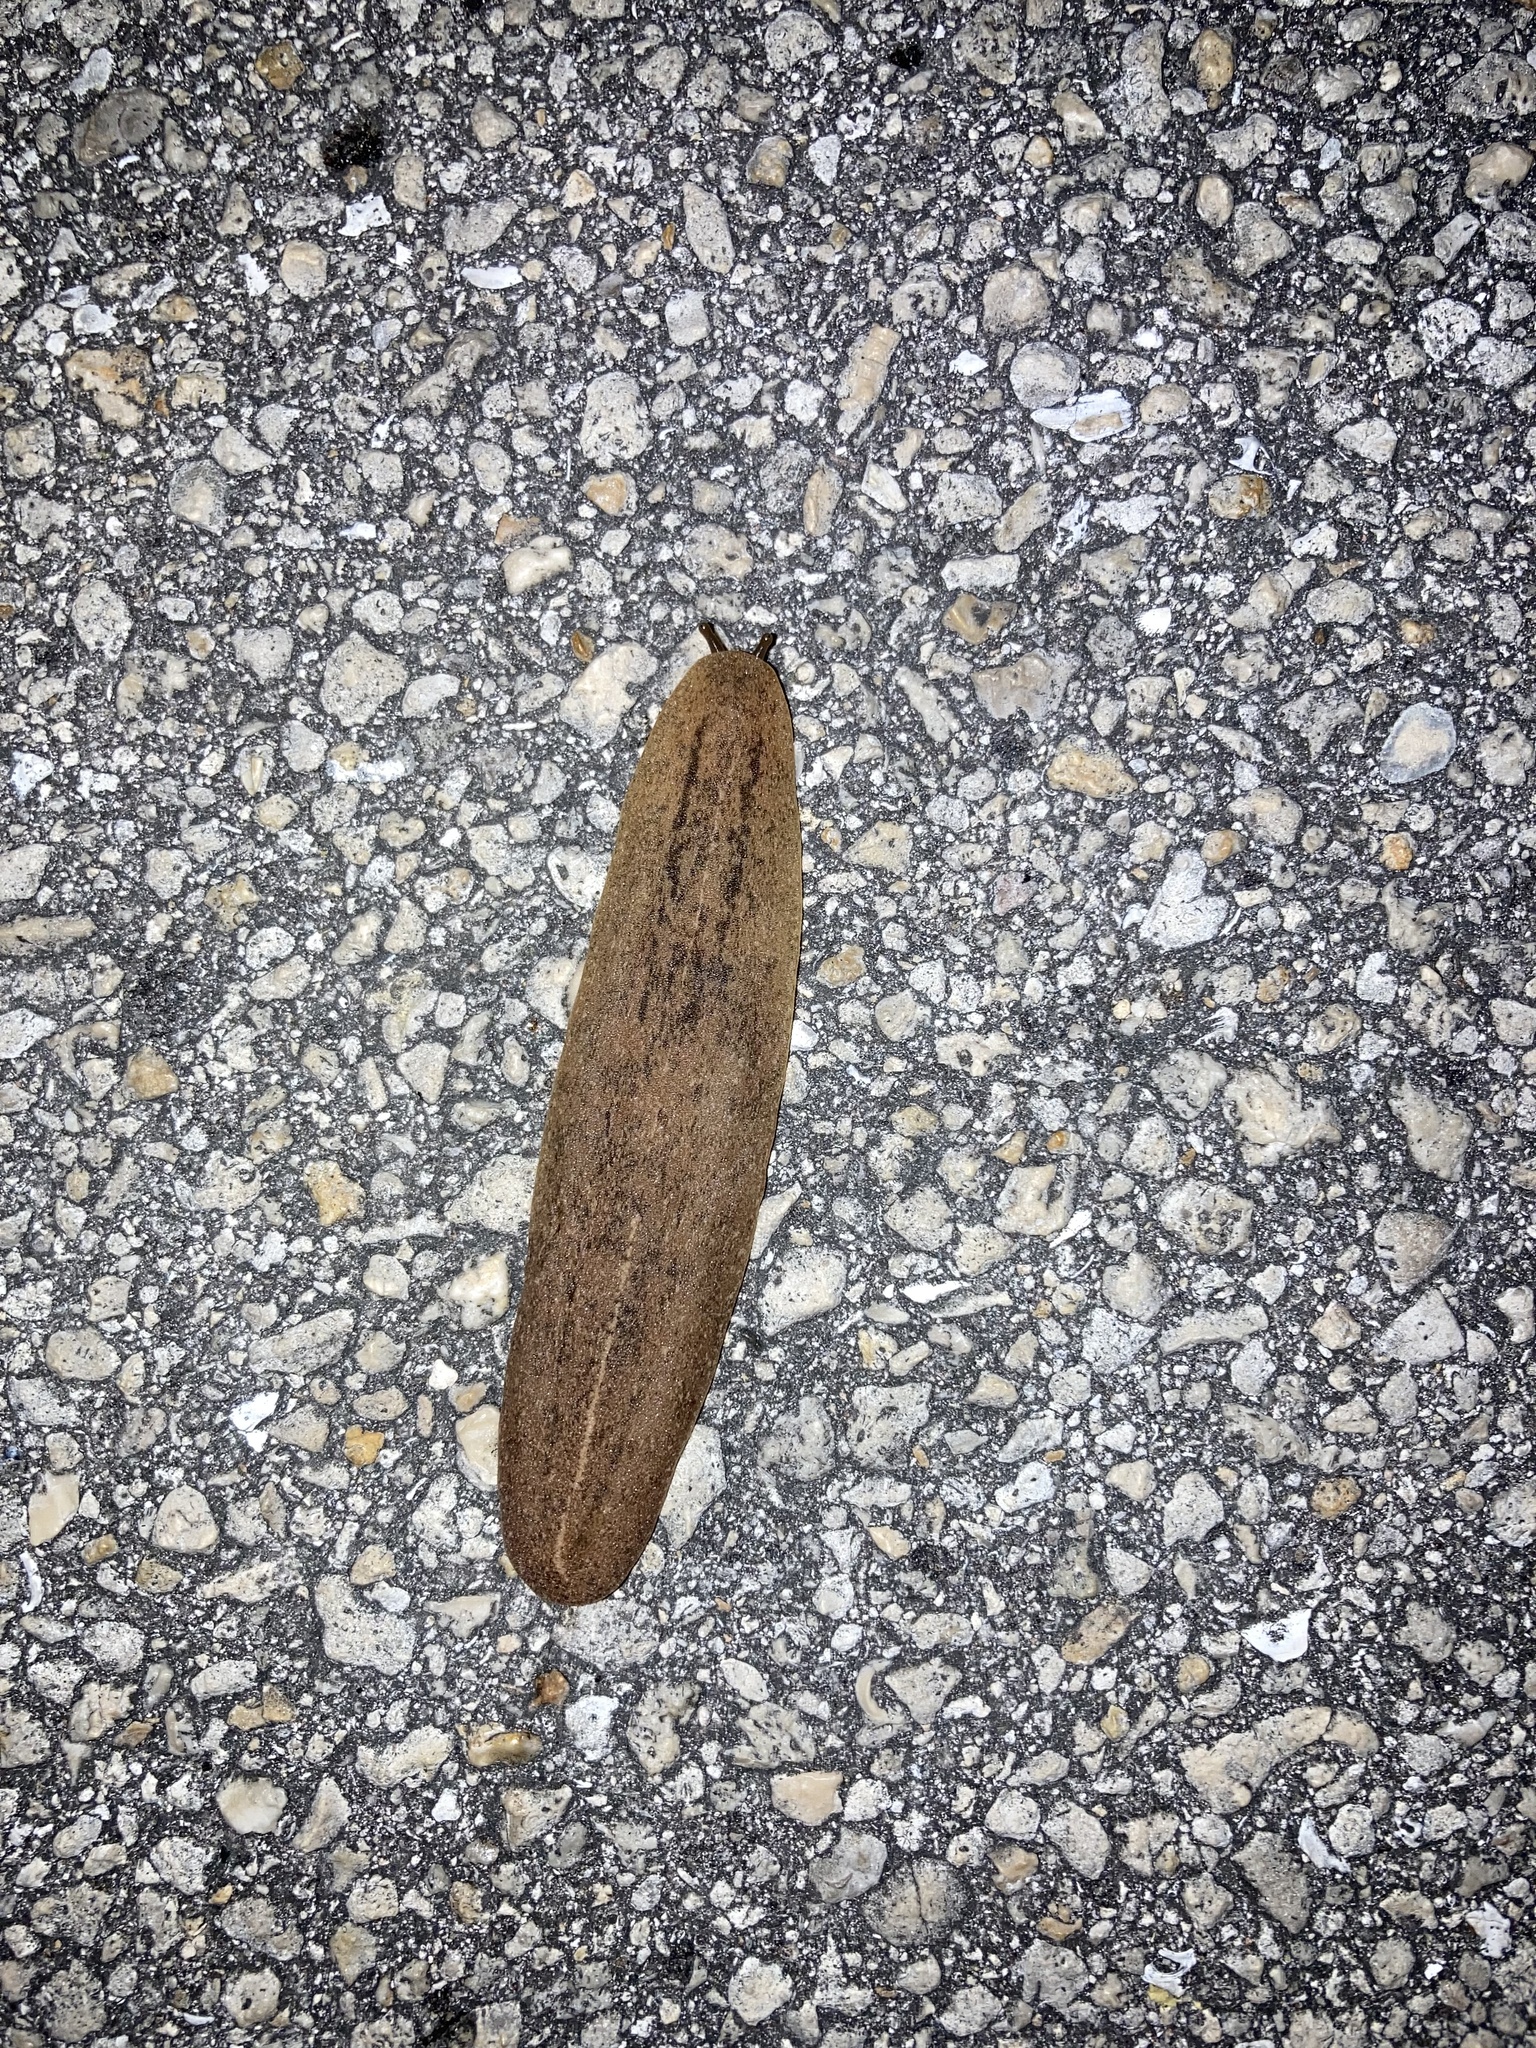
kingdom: Animalia
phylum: Mollusca
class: Gastropoda
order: Systellommatophora
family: Veronicellidae
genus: Leidyula
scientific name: Leidyula floridana
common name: Florida leatherleaf
